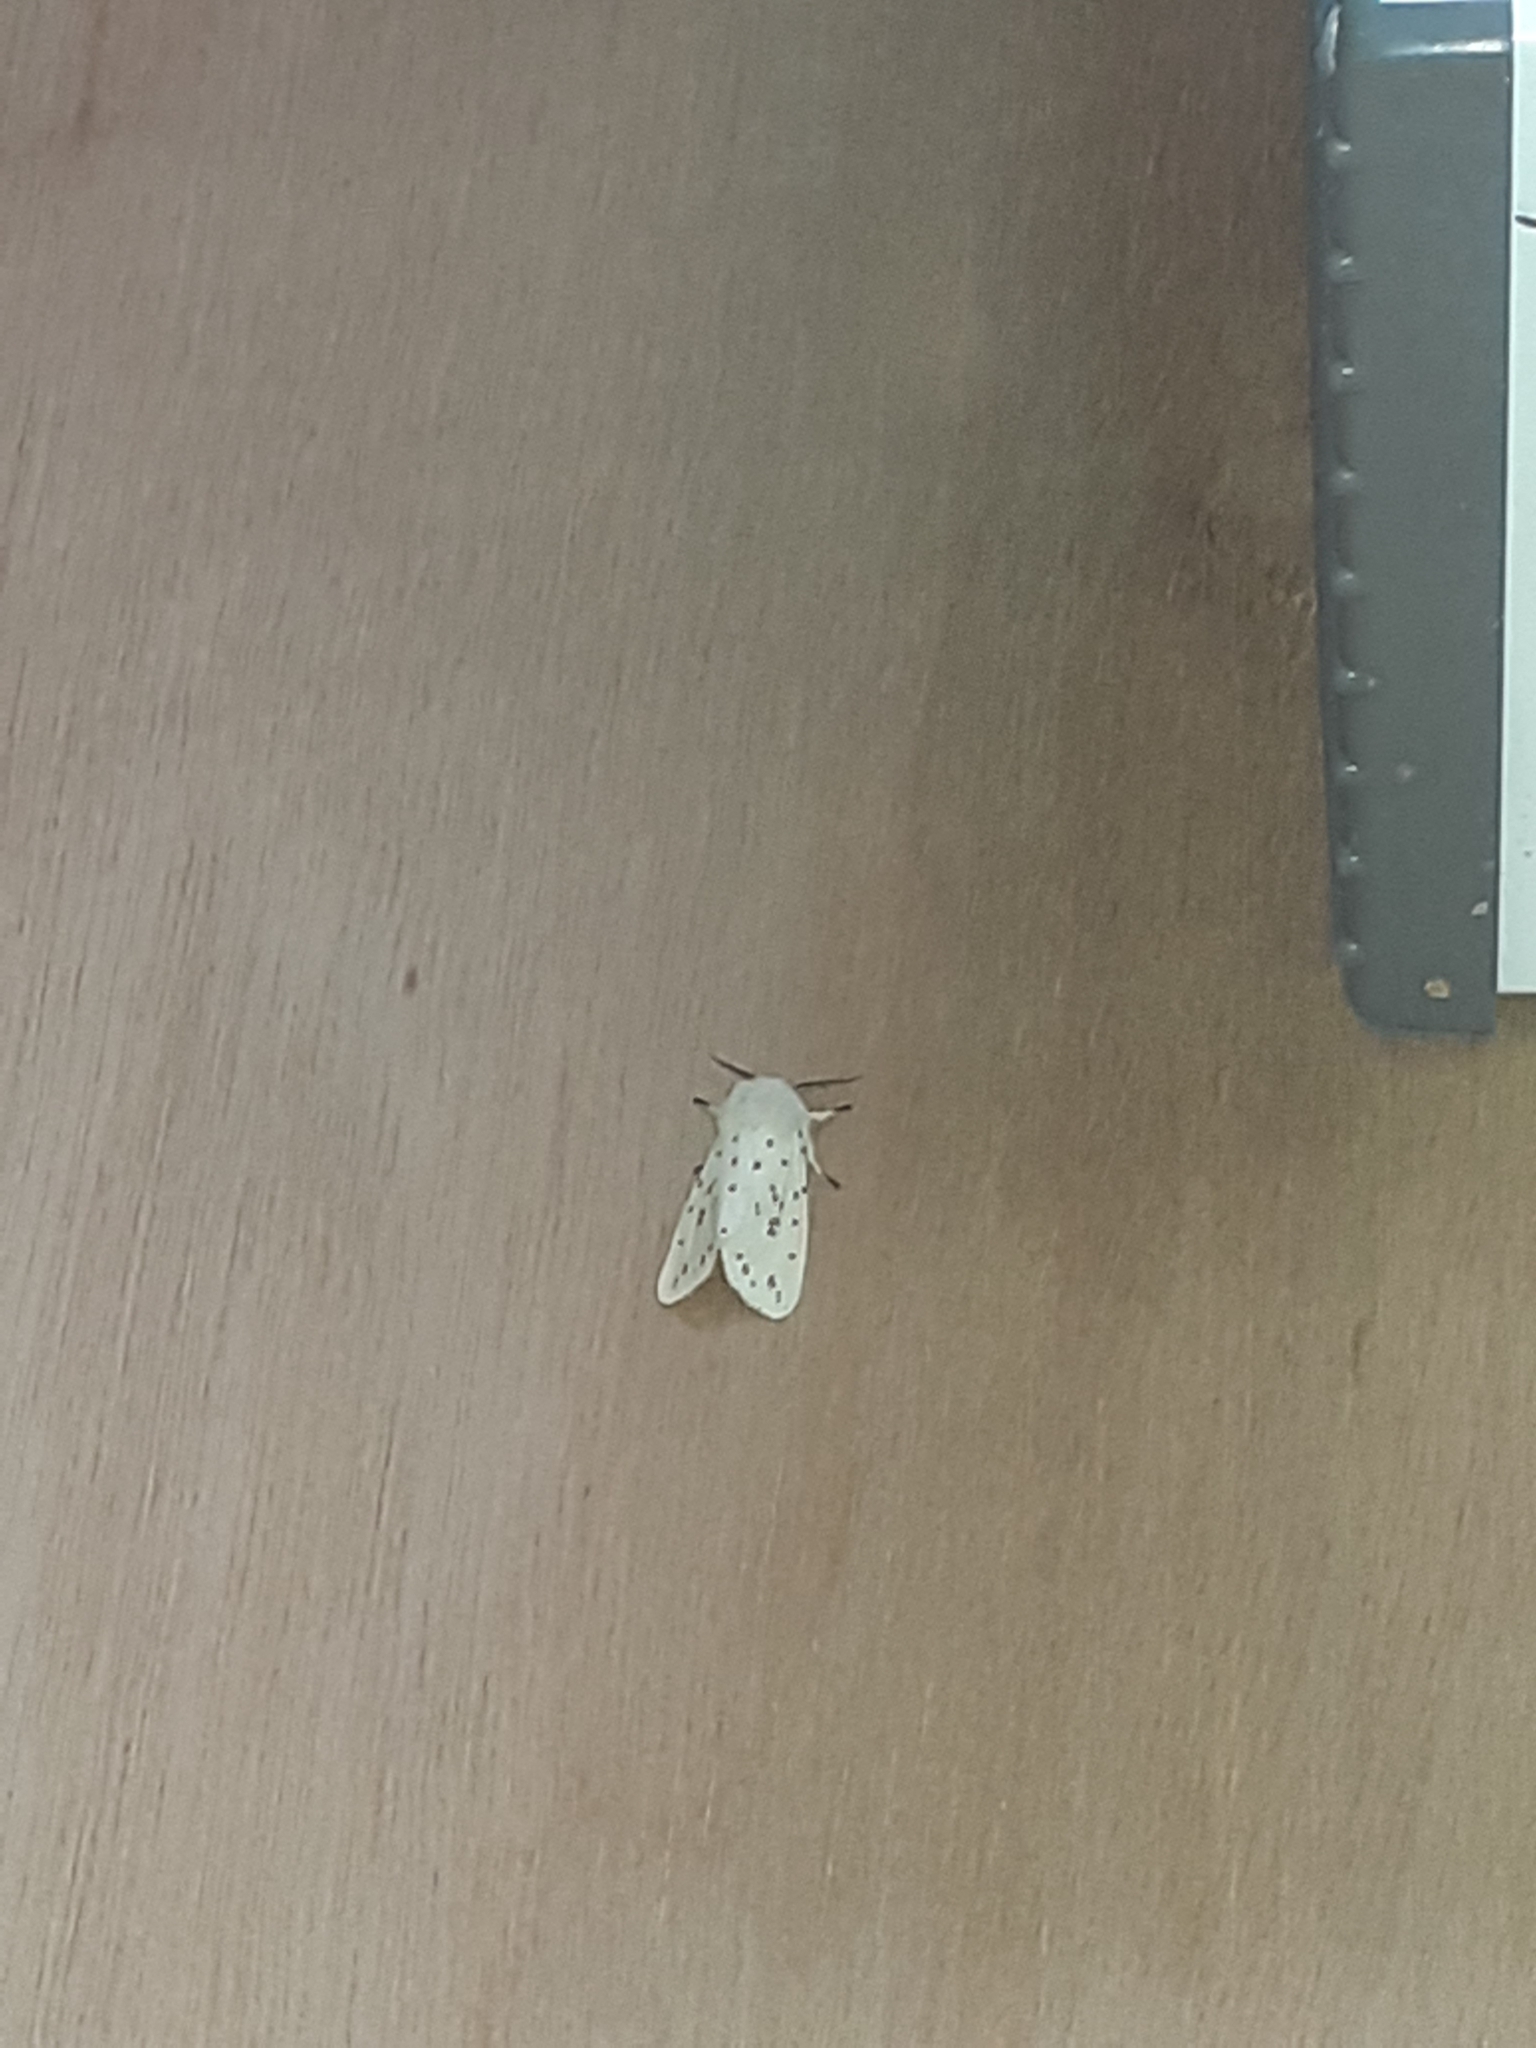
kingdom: Animalia
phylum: Arthropoda
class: Insecta
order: Lepidoptera
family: Erebidae
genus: Spilosoma
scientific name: Spilosoma lubricipeda
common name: White ermine
